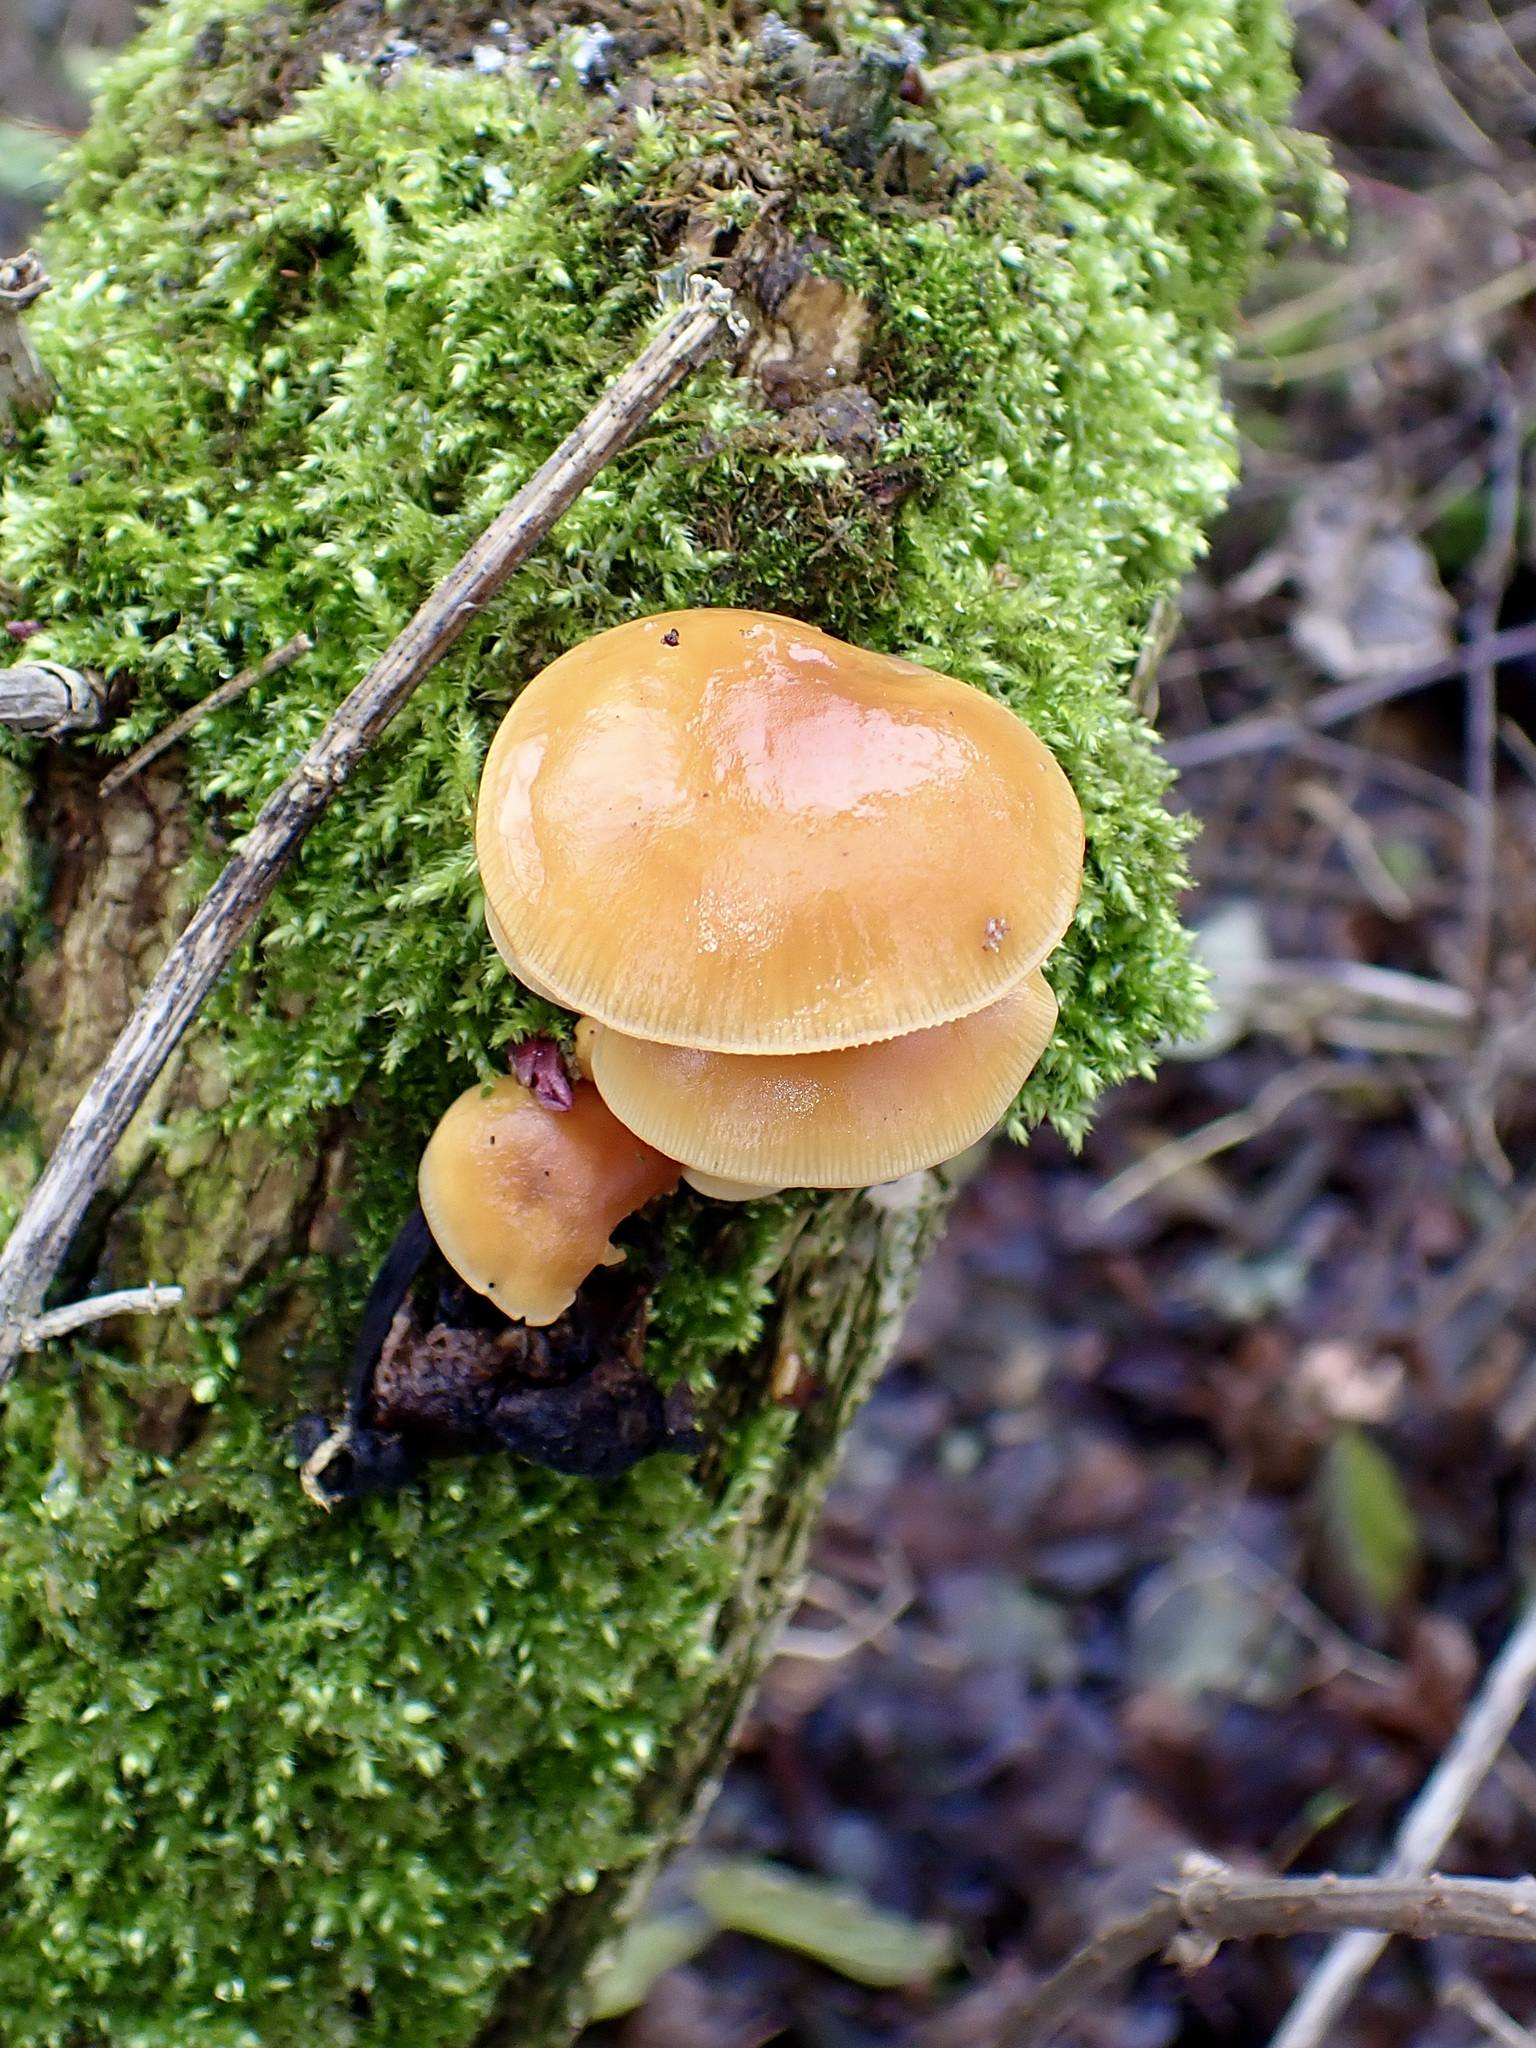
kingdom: Fungi
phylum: Basidiomycota
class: Agaricomycetes
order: Agaricales
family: Physalacriaceae
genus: Flammulina
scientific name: Flammulina
